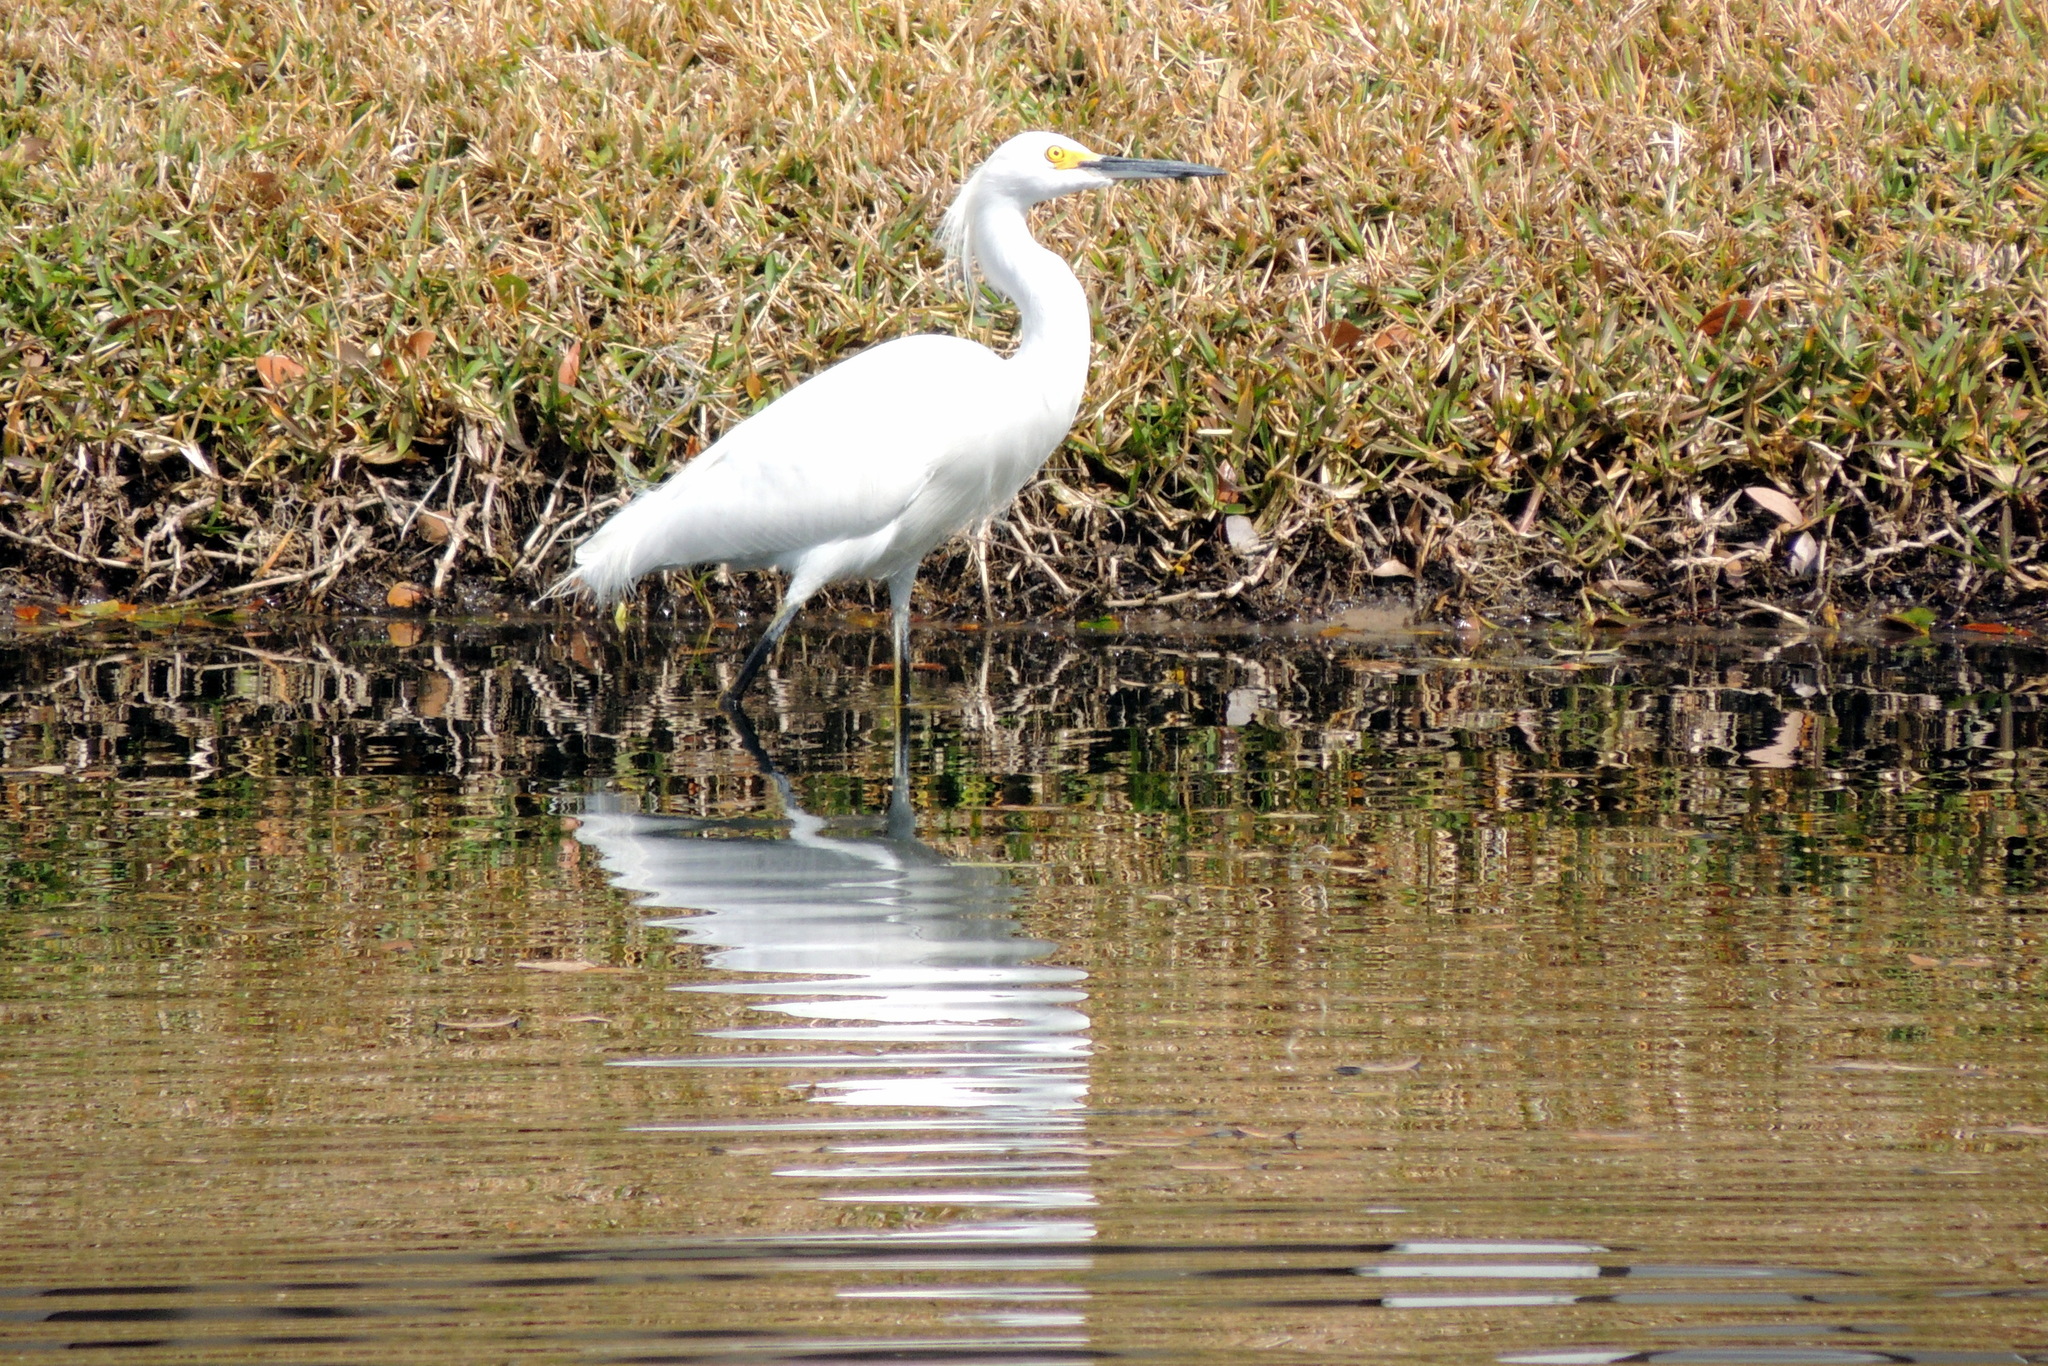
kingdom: Animalia
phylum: Chordata
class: Aves
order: Pelecaniformes
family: Ardeidae
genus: Egretta
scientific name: Egretta thula
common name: Snowy egret
